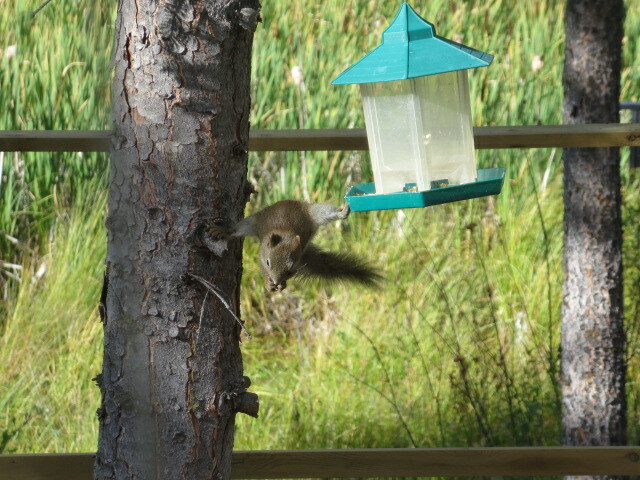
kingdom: Animalia
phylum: Chordata
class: Mammalia
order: Rodentia
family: Sciuridae
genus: Tamiasciurus
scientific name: Tamiasciurus hudsonicus
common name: Red squirrel
